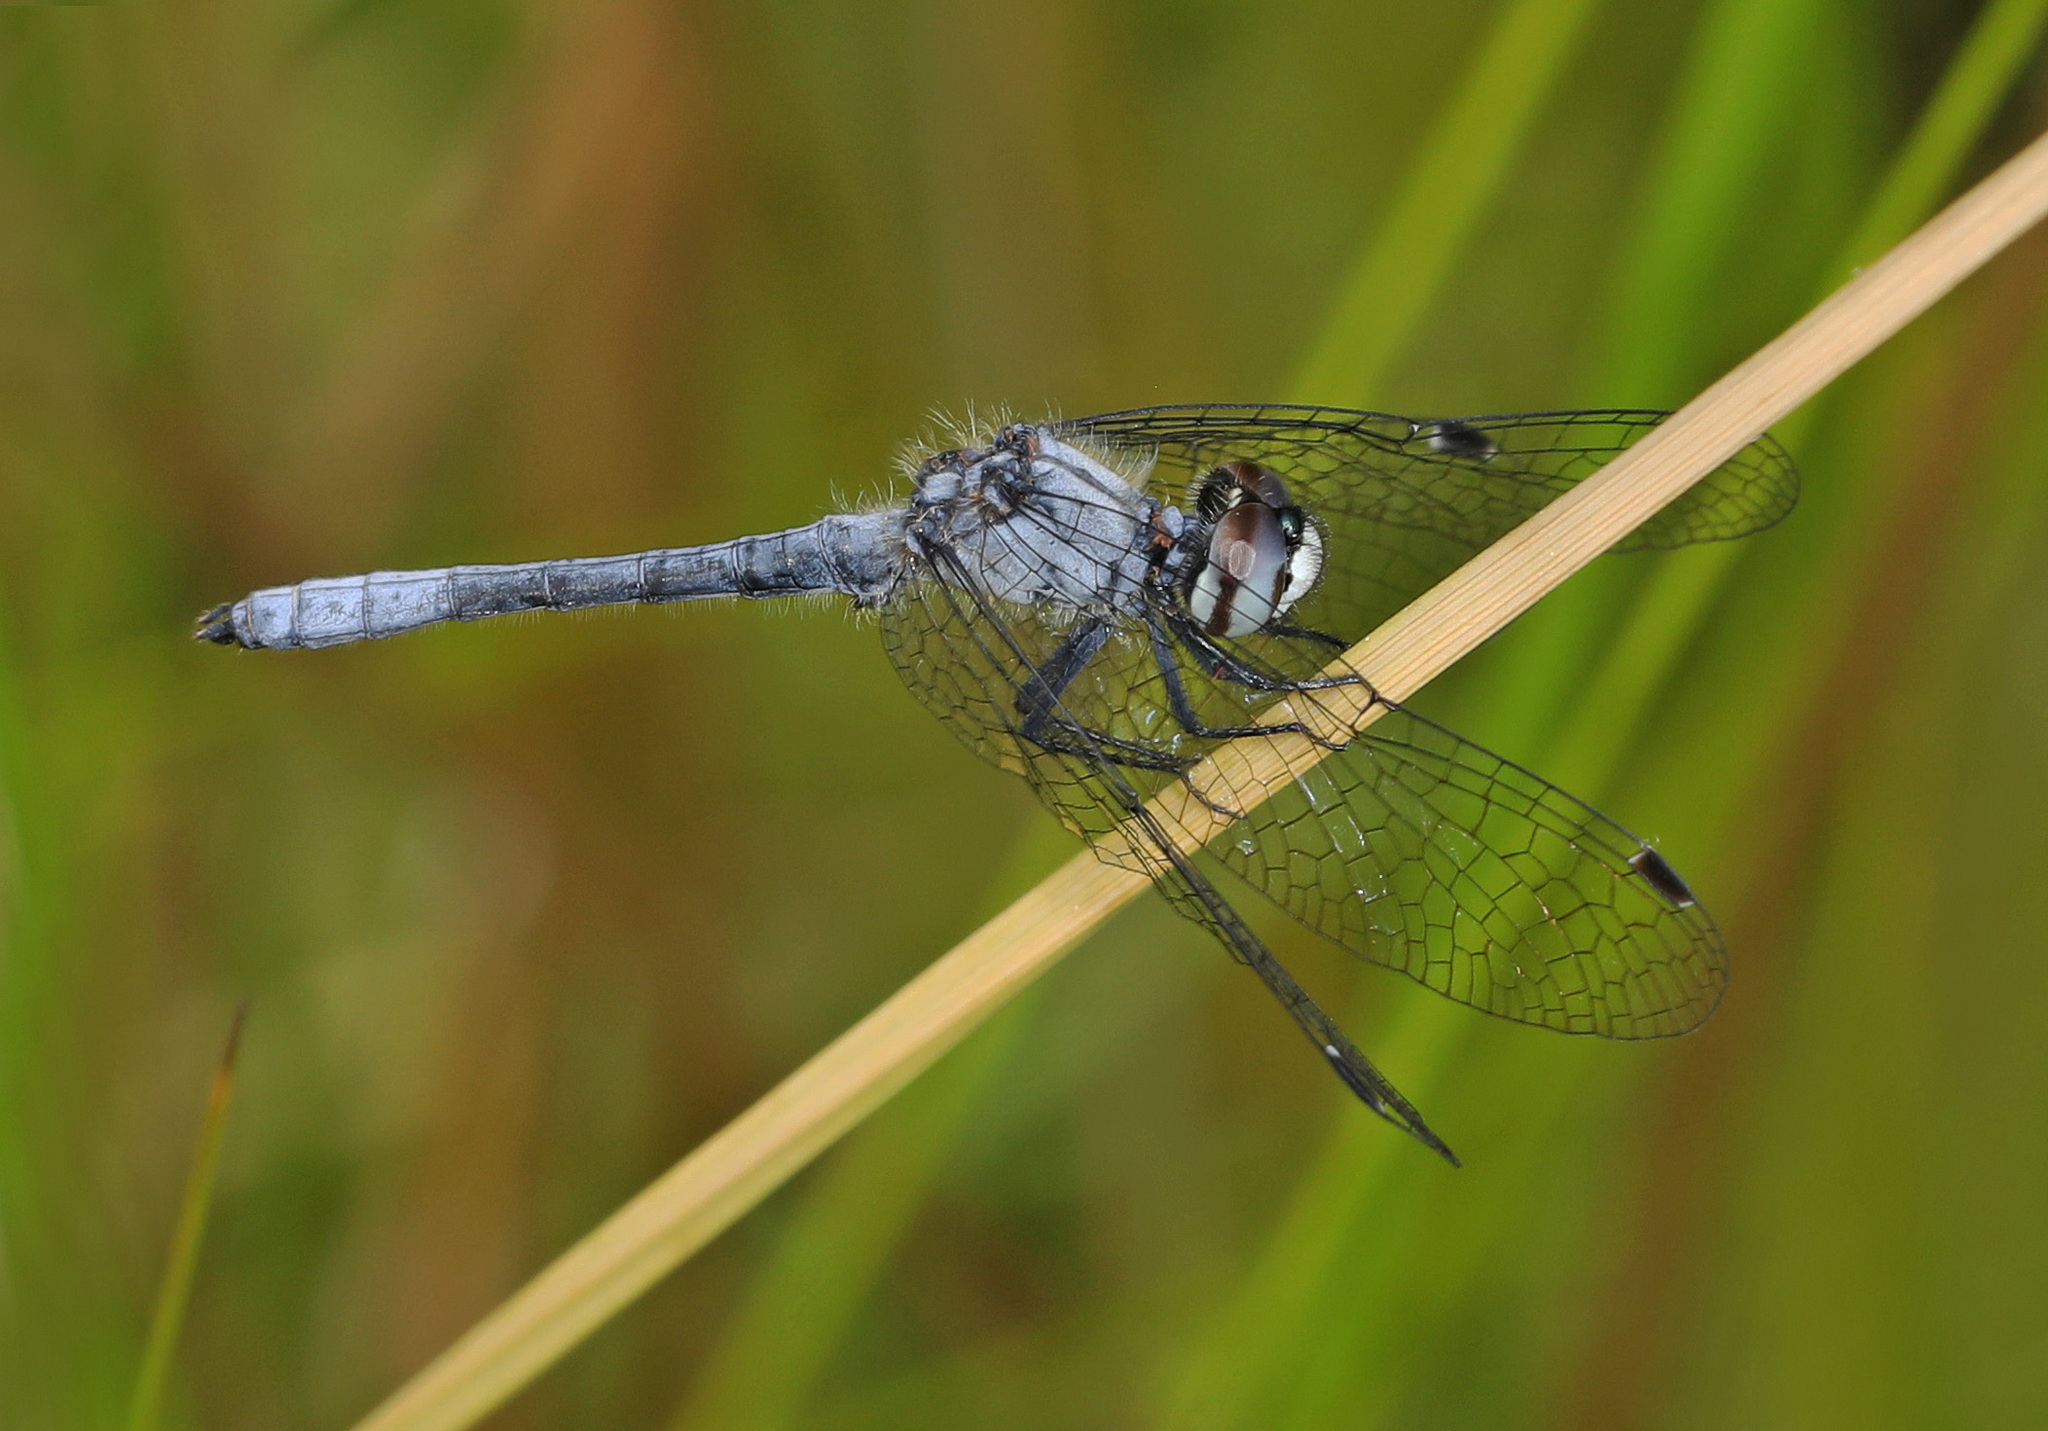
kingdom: Animalia
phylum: Arthropoda
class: Insecta
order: Odonata
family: Libellulidae
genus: Nannothemis
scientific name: Nannothemis bella
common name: Elfin skimmer
